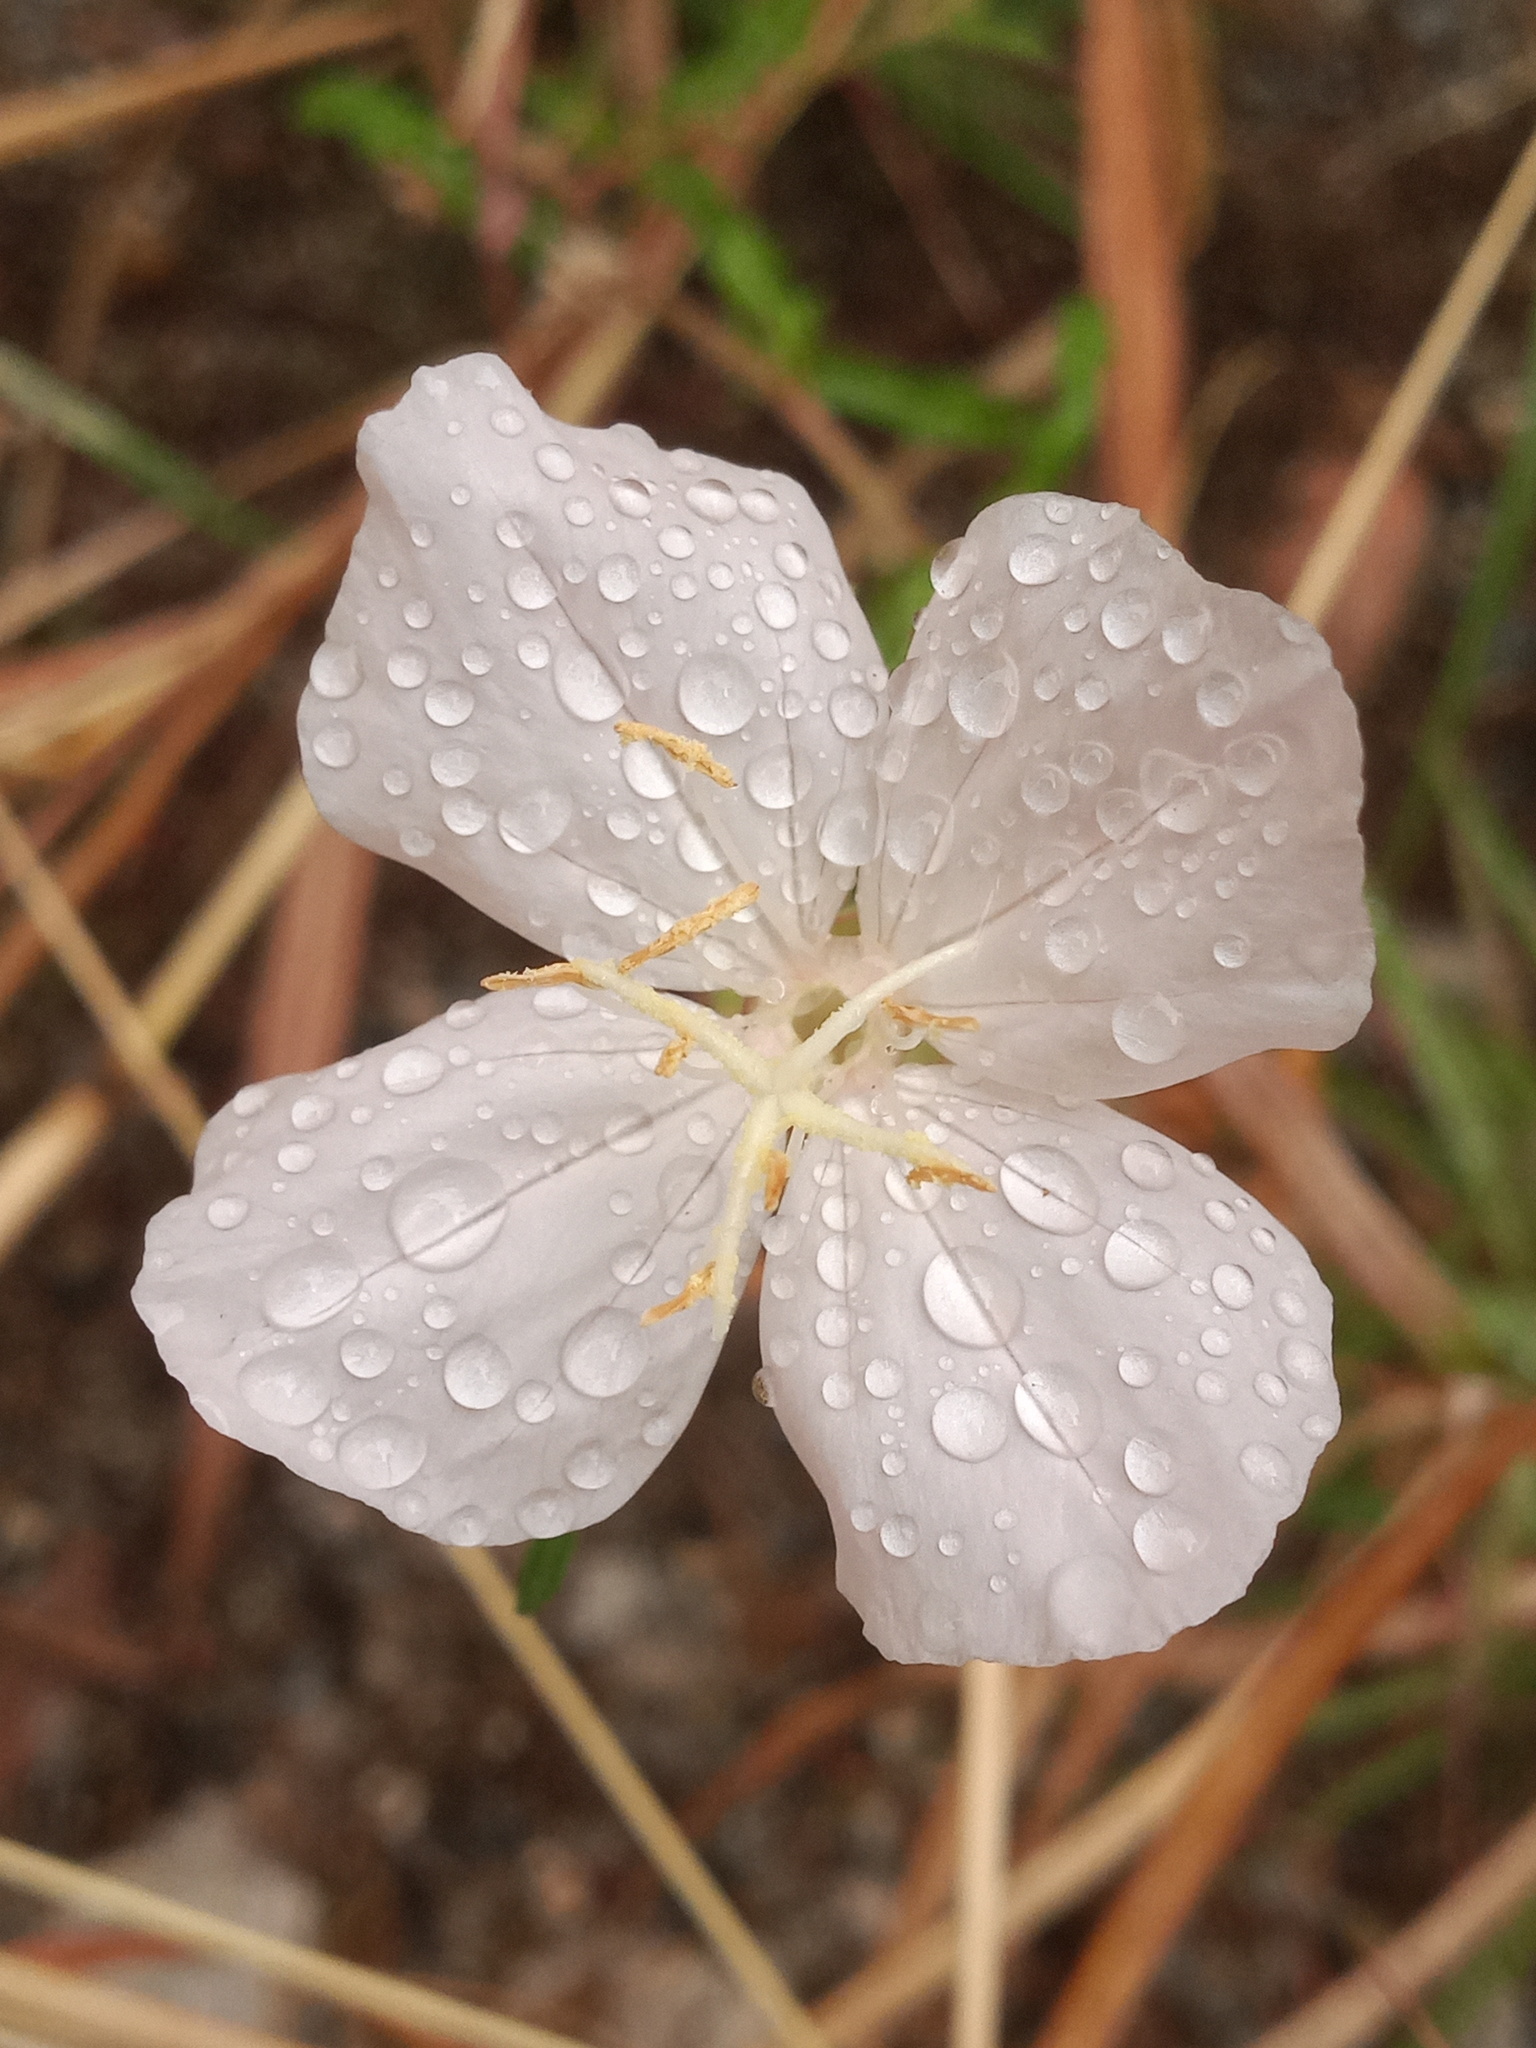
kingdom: Plantae
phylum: Tracheophyta
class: Magnoliopsida
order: Myrtales
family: Onagraceae
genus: Oenothera
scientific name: Oenothera tetraptera
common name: Four-wing evening-primrose
